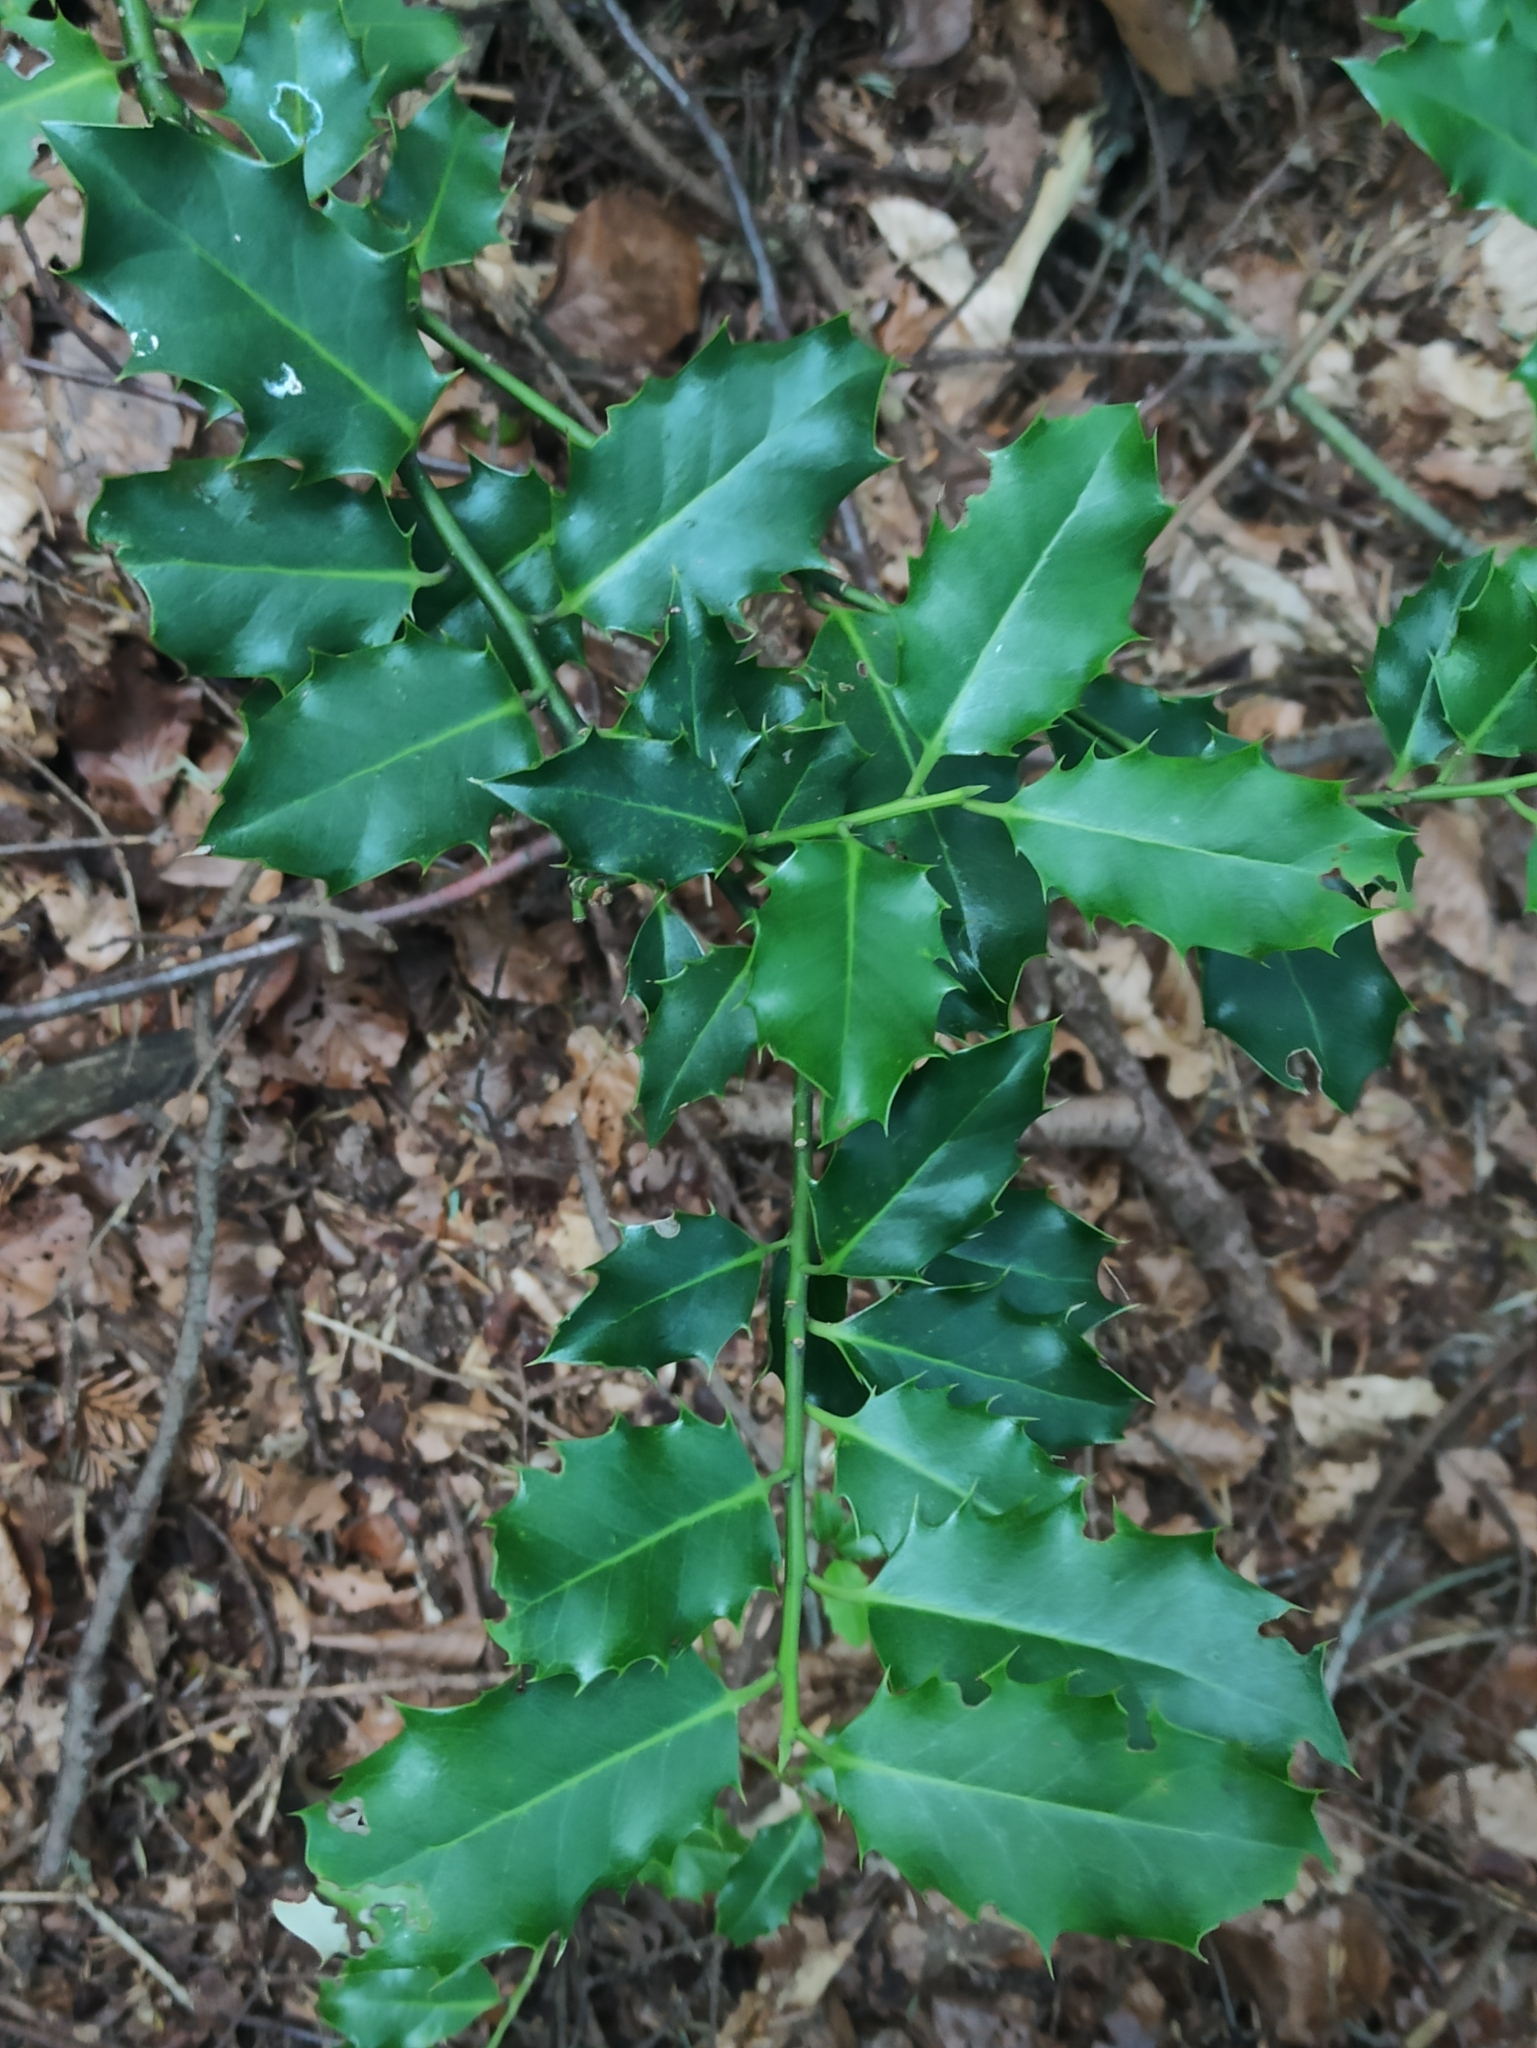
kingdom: Plantae
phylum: Tracheophyta
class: Magnoliopsida
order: Aquifoliales
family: Aquifoliaceae
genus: Ilex
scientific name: Ilex aquifolium
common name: English holly
